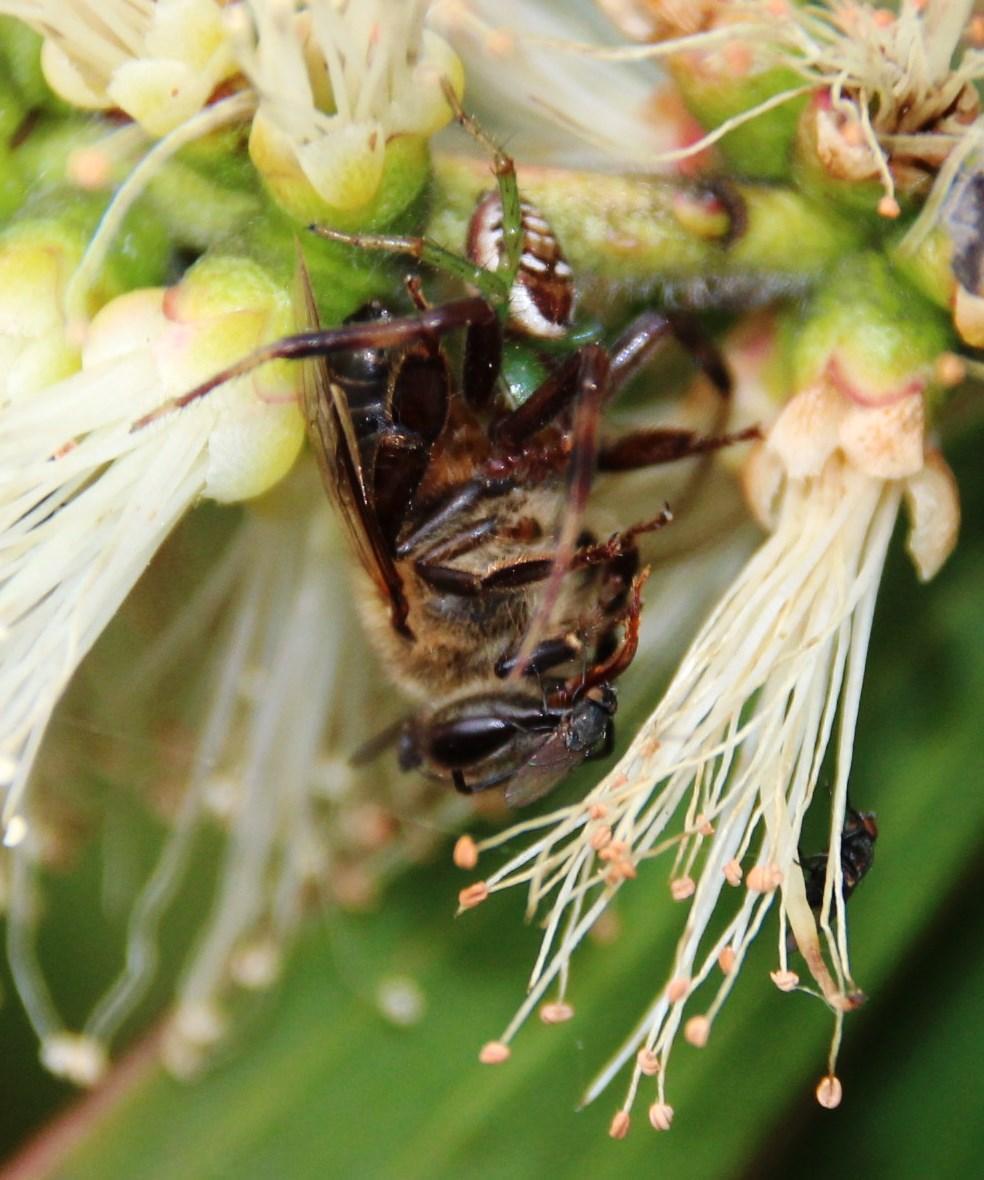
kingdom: Animalia
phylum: Arthropoda
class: Arachnida
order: Araneae
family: Thomisidae
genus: Synema
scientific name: Synema imitatrix
